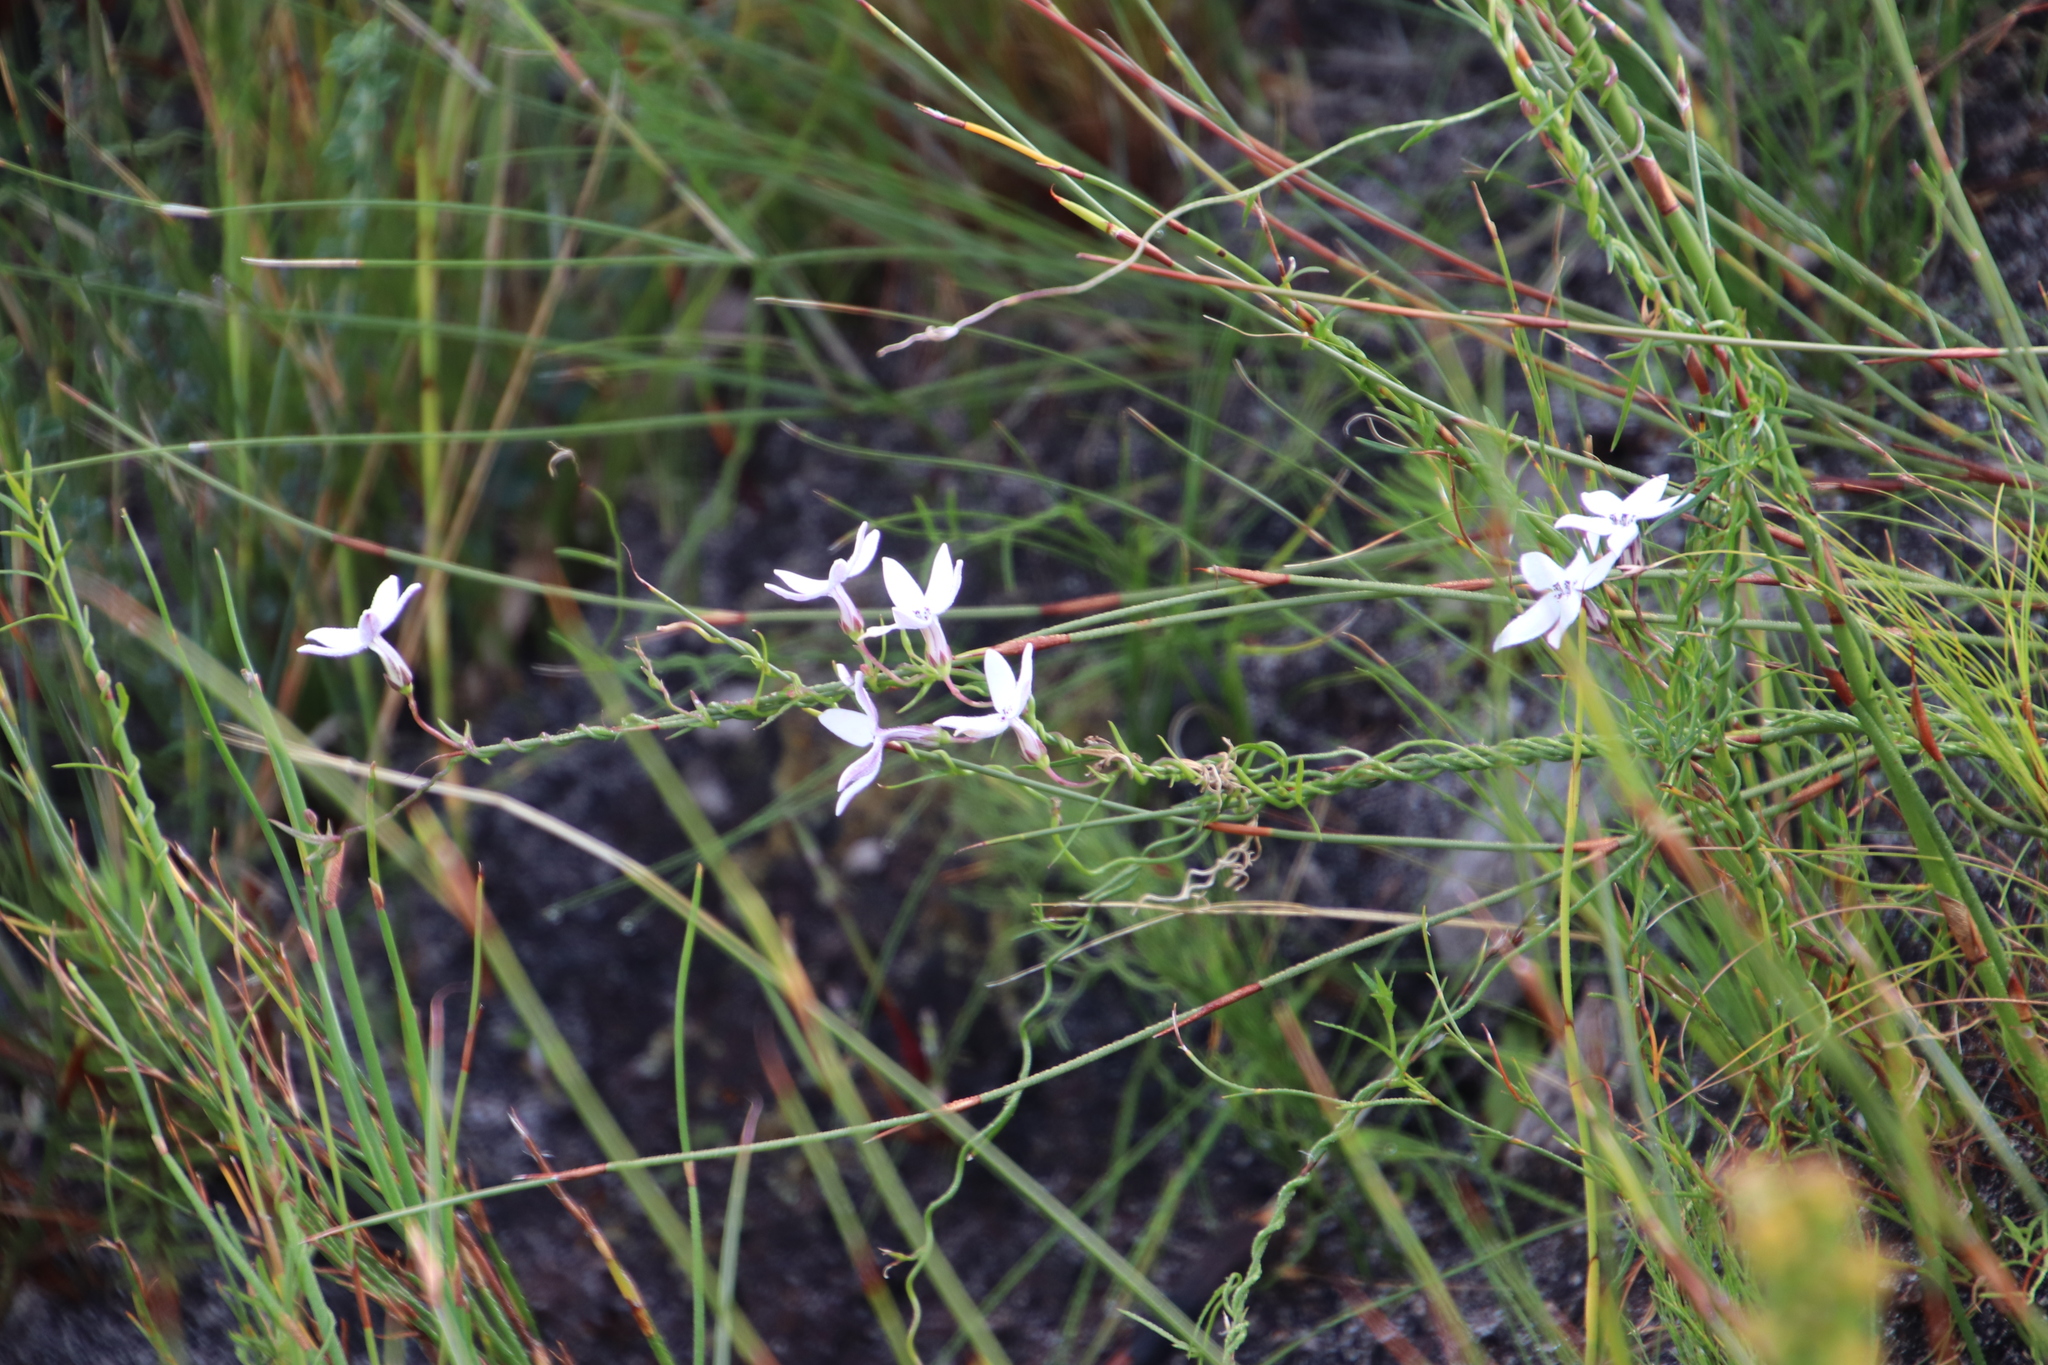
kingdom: Plantae
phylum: Tracheophyta
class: Magnoliopsida
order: Asterales
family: Campanulaceae
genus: Cyphia
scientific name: Cyphia volubilis
